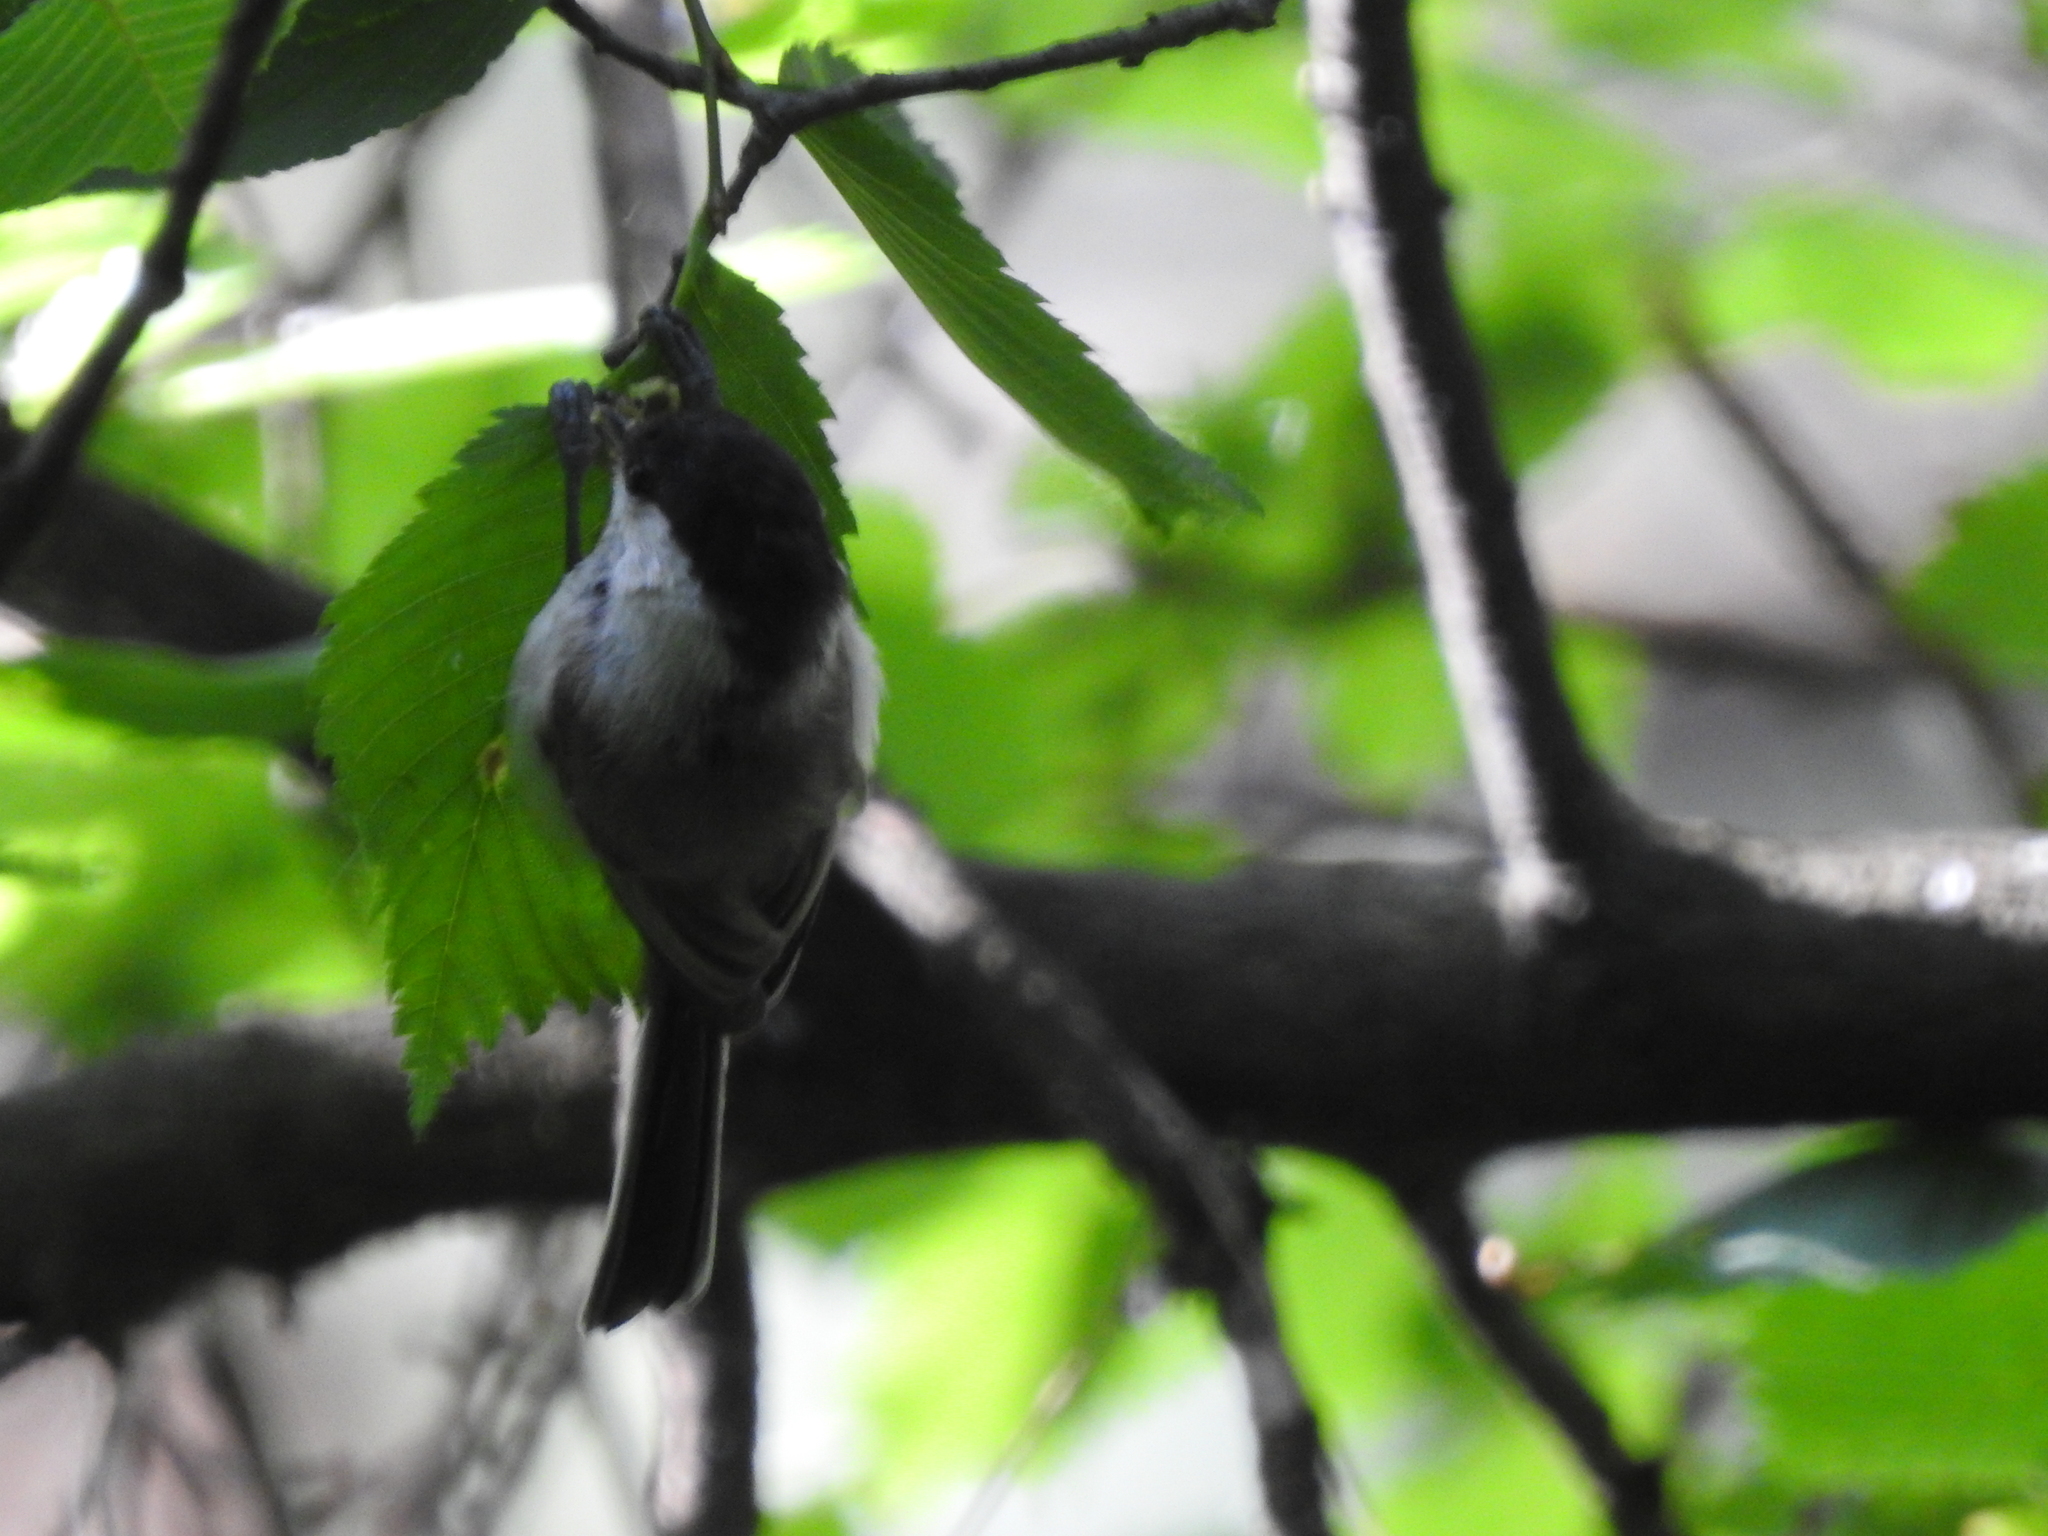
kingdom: Animalia
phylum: Chordata
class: Aves
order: Passeriformes
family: Paridae
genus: Poecile
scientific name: Poecile montanus
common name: Willow tit
